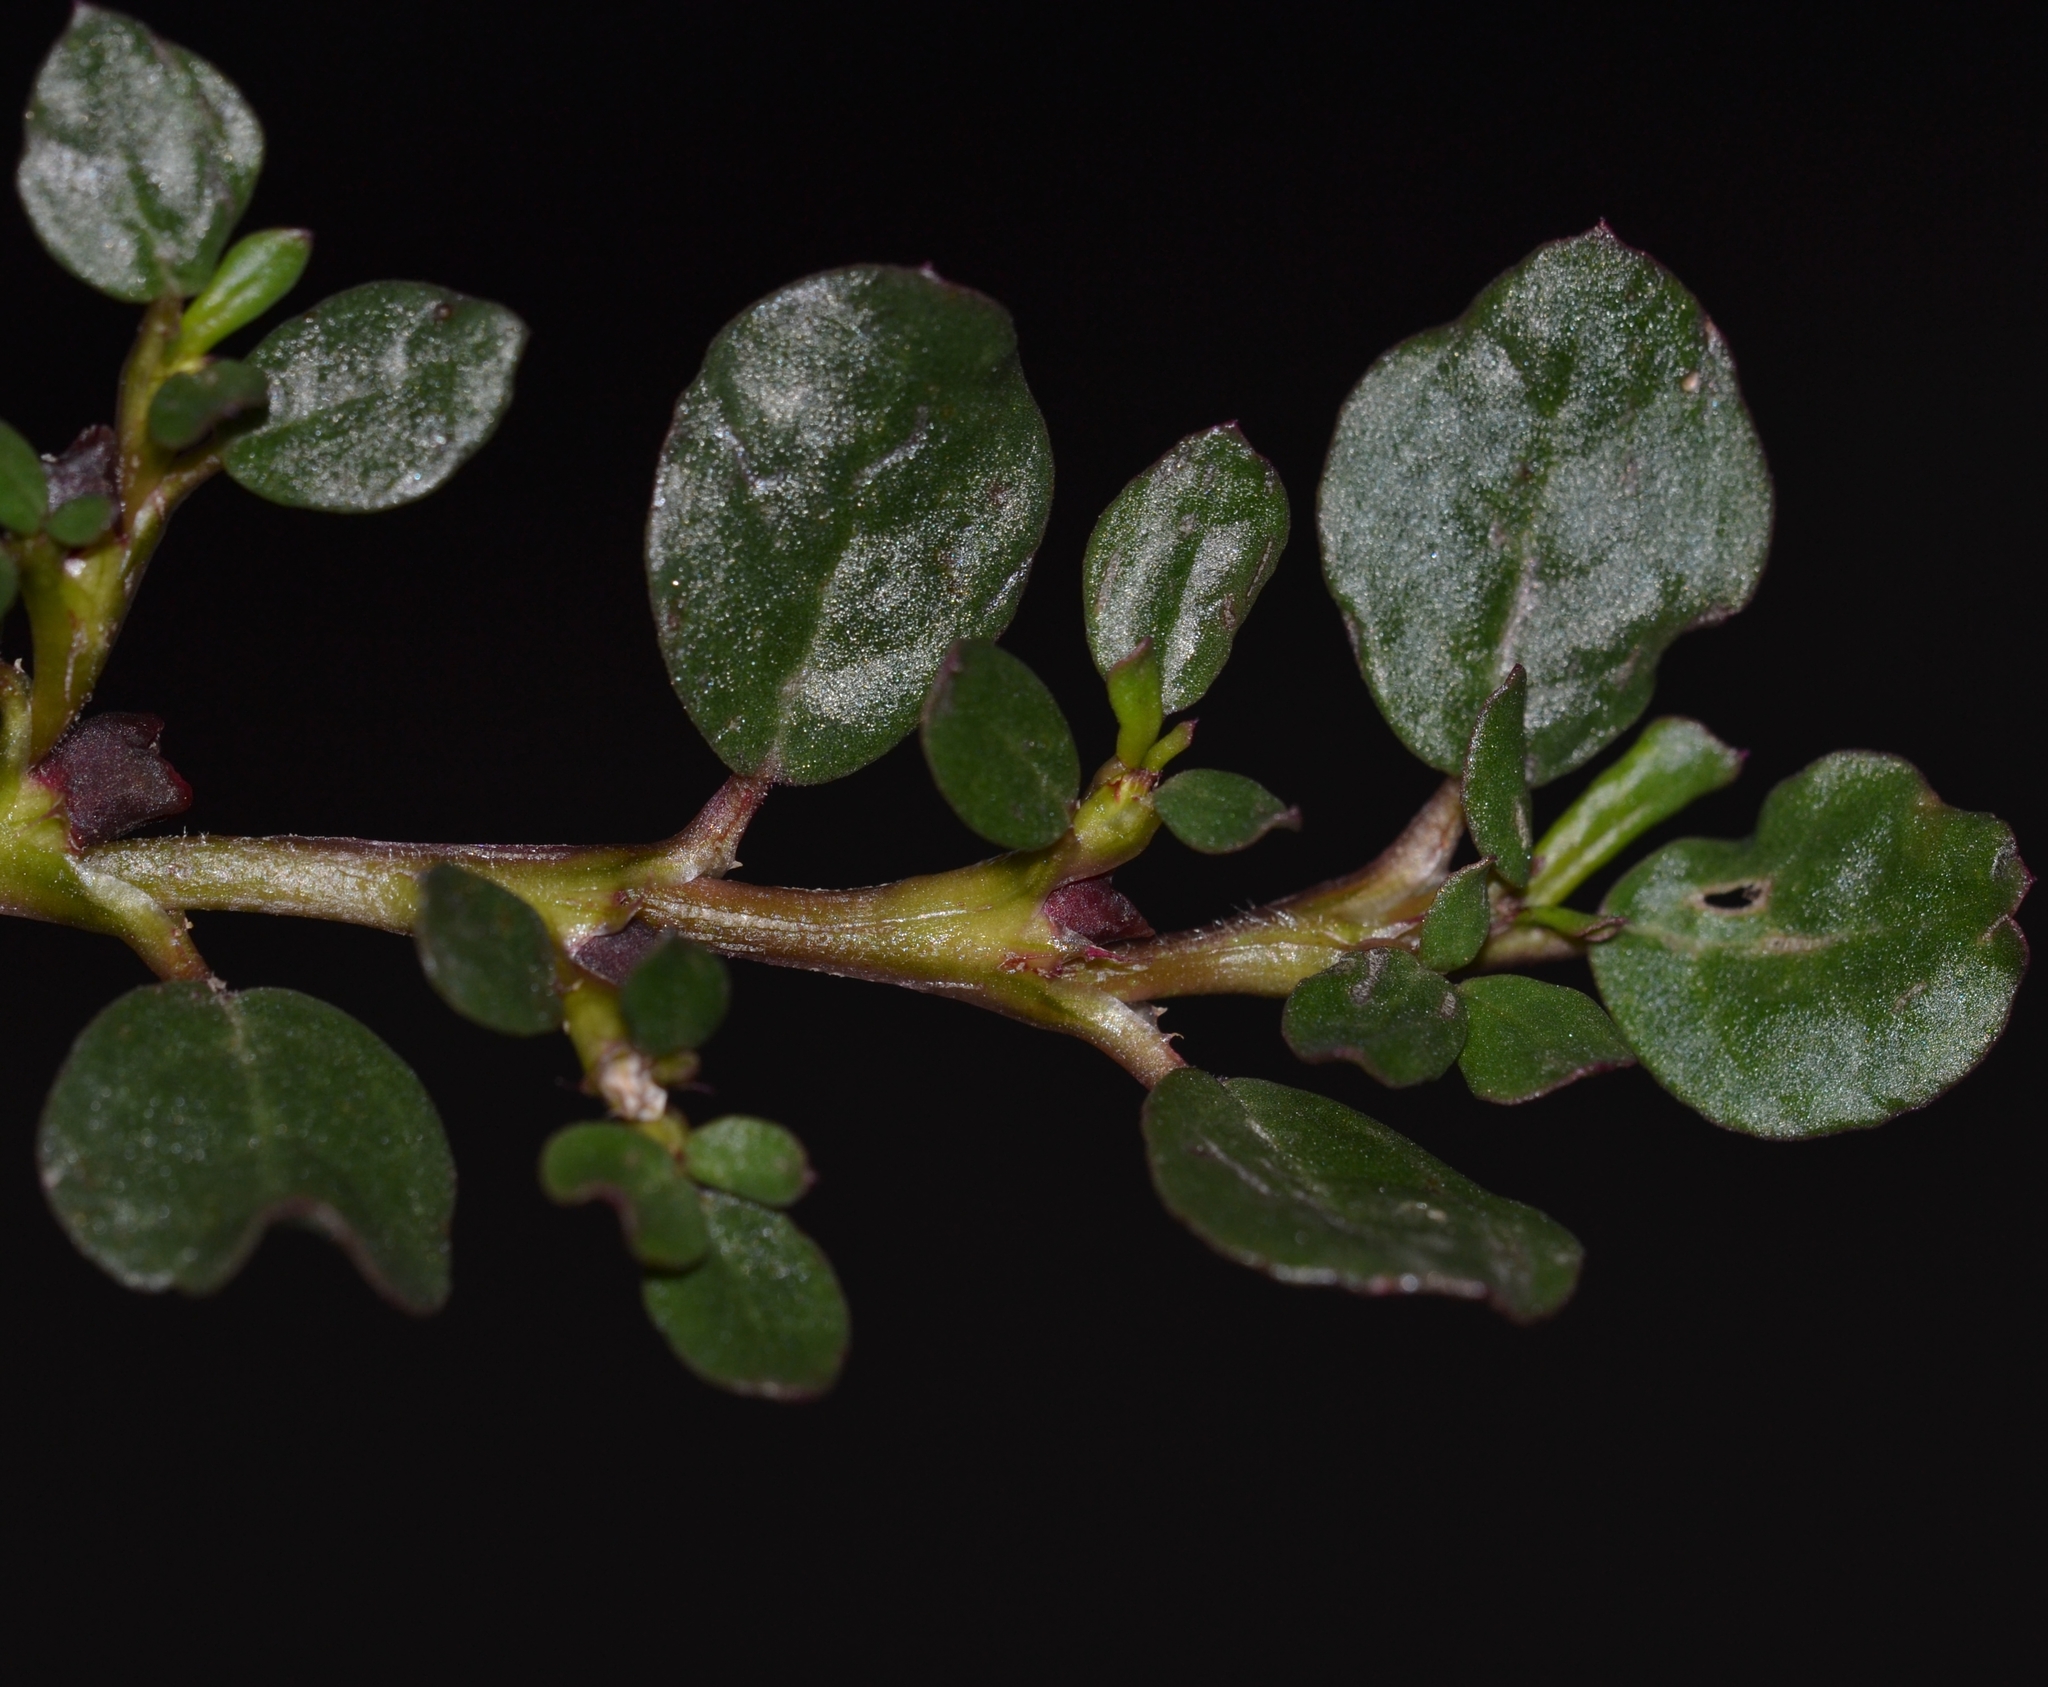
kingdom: Plantae
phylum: Tracheophyta
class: Magnoliopsida
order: Caryophyllales
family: Aizoaceae
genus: Trianthema
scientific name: Trianthema portulacastrum
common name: Desert horsepurslane
